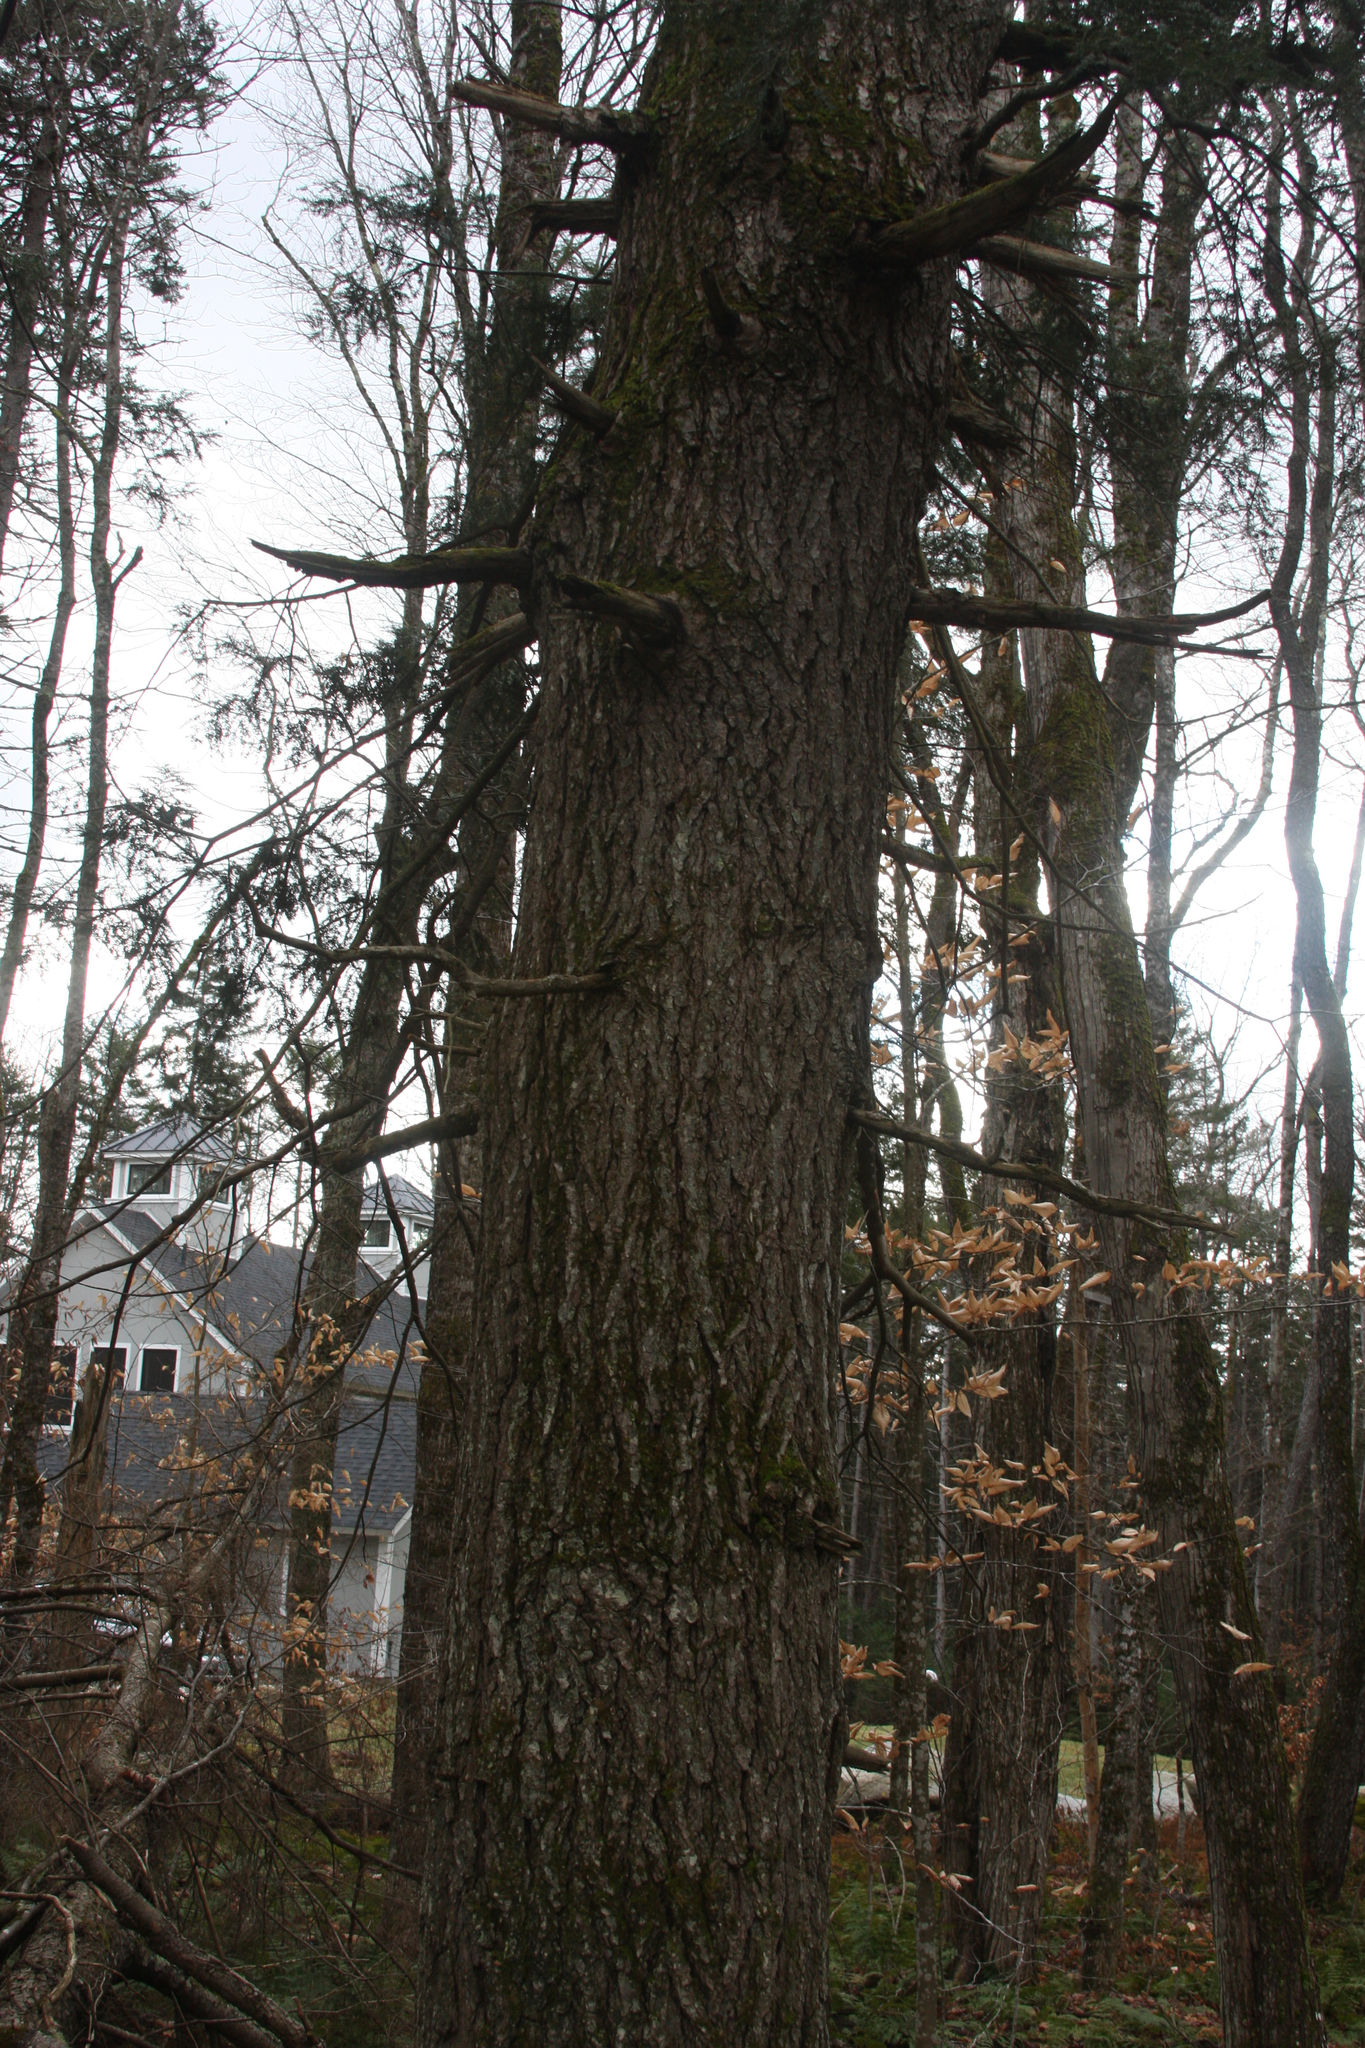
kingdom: Plantae
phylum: Tracheophyta
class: Pinopsida
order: Pinales
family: Pinaceae
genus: Tsuga
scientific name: Tsuga canadensis
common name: Eastern hemlock
